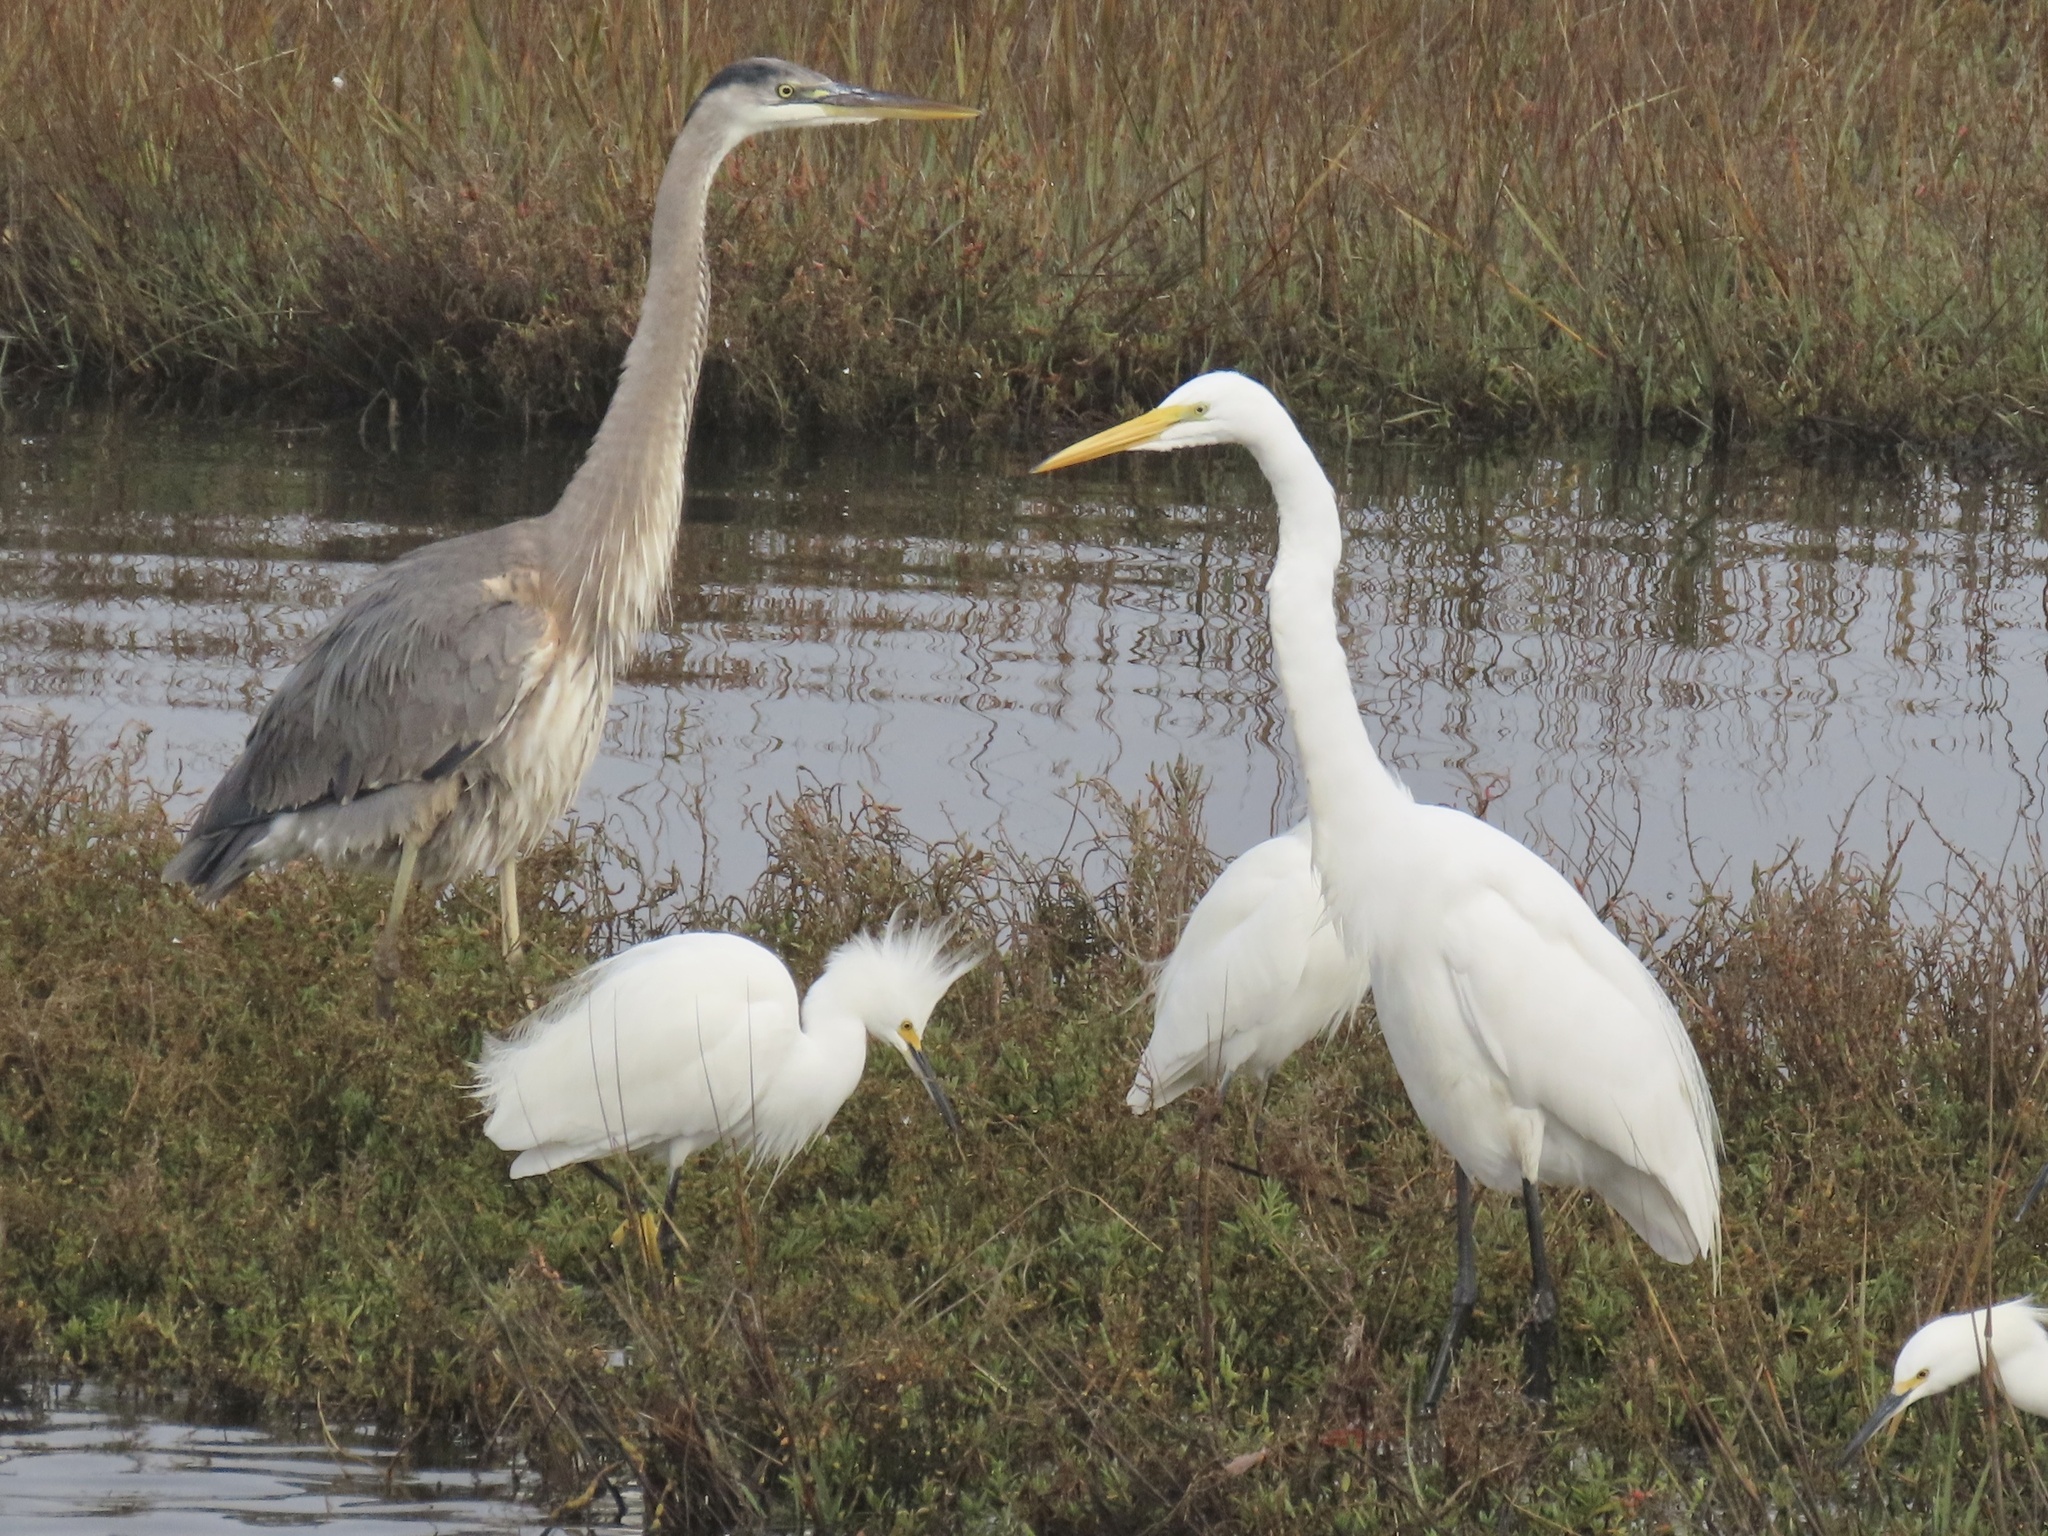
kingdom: Animalia
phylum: Chordata
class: Aves
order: Pelecaniformes
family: Ardeidae
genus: Ardea
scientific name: Ardea alba
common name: Great egret
